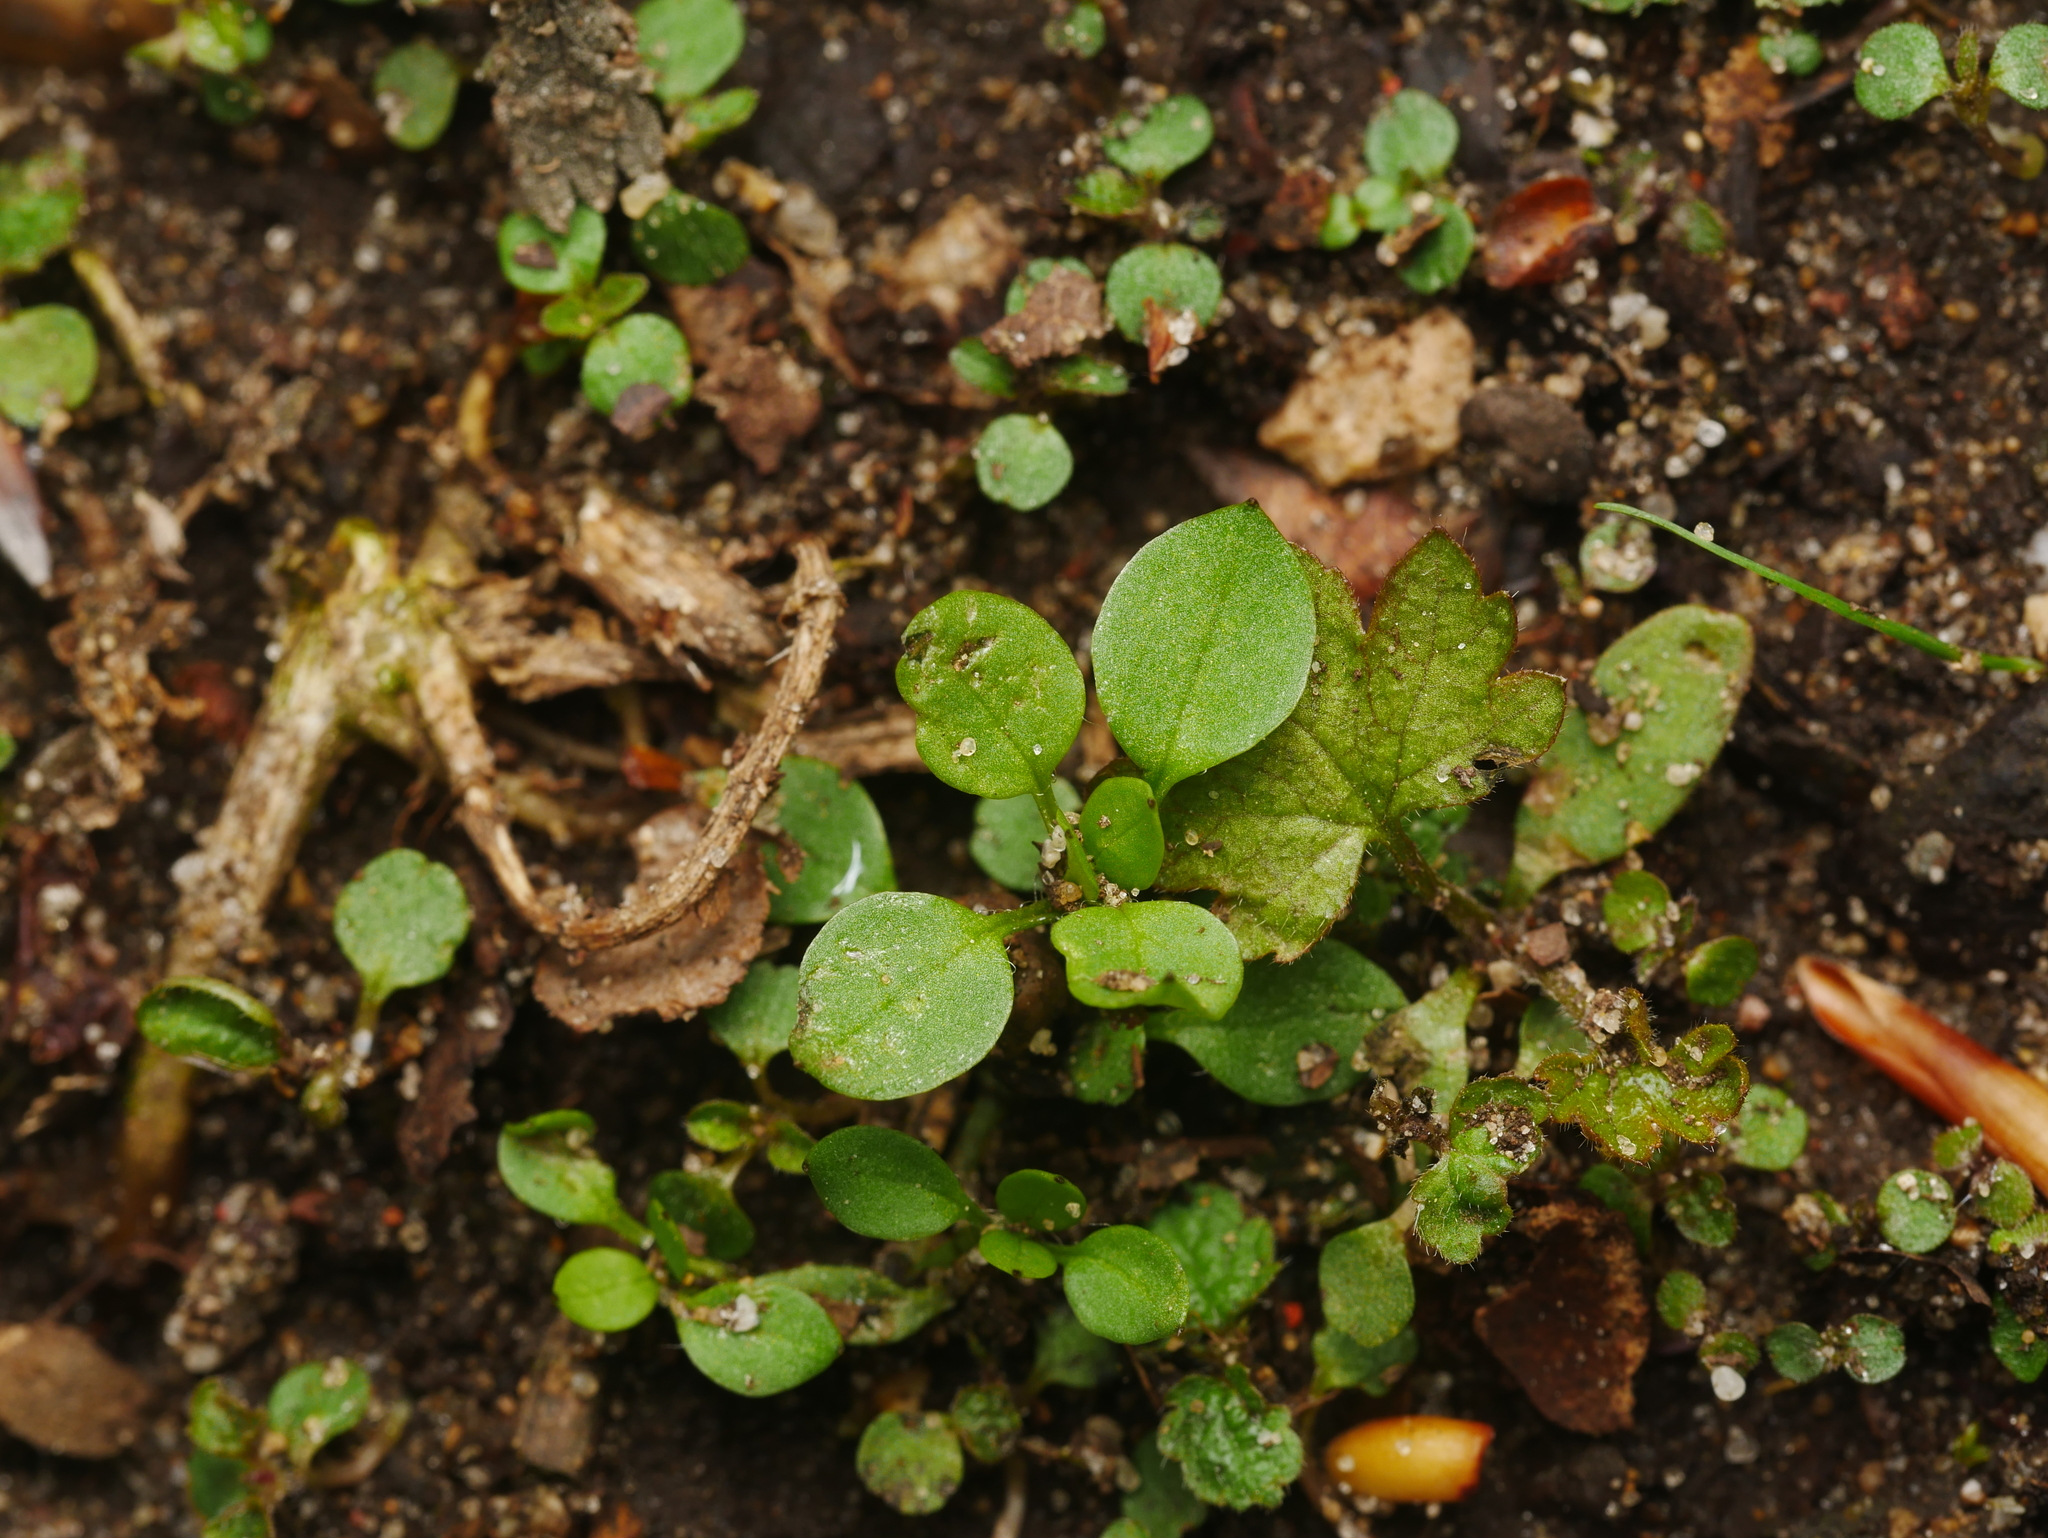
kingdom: Plantae
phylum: Tracheophyta
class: Magnoliopsida
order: Caryophyllales
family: Caryophyllaceae
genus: Stellaria
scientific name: Stellaria media
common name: Common chickweed
